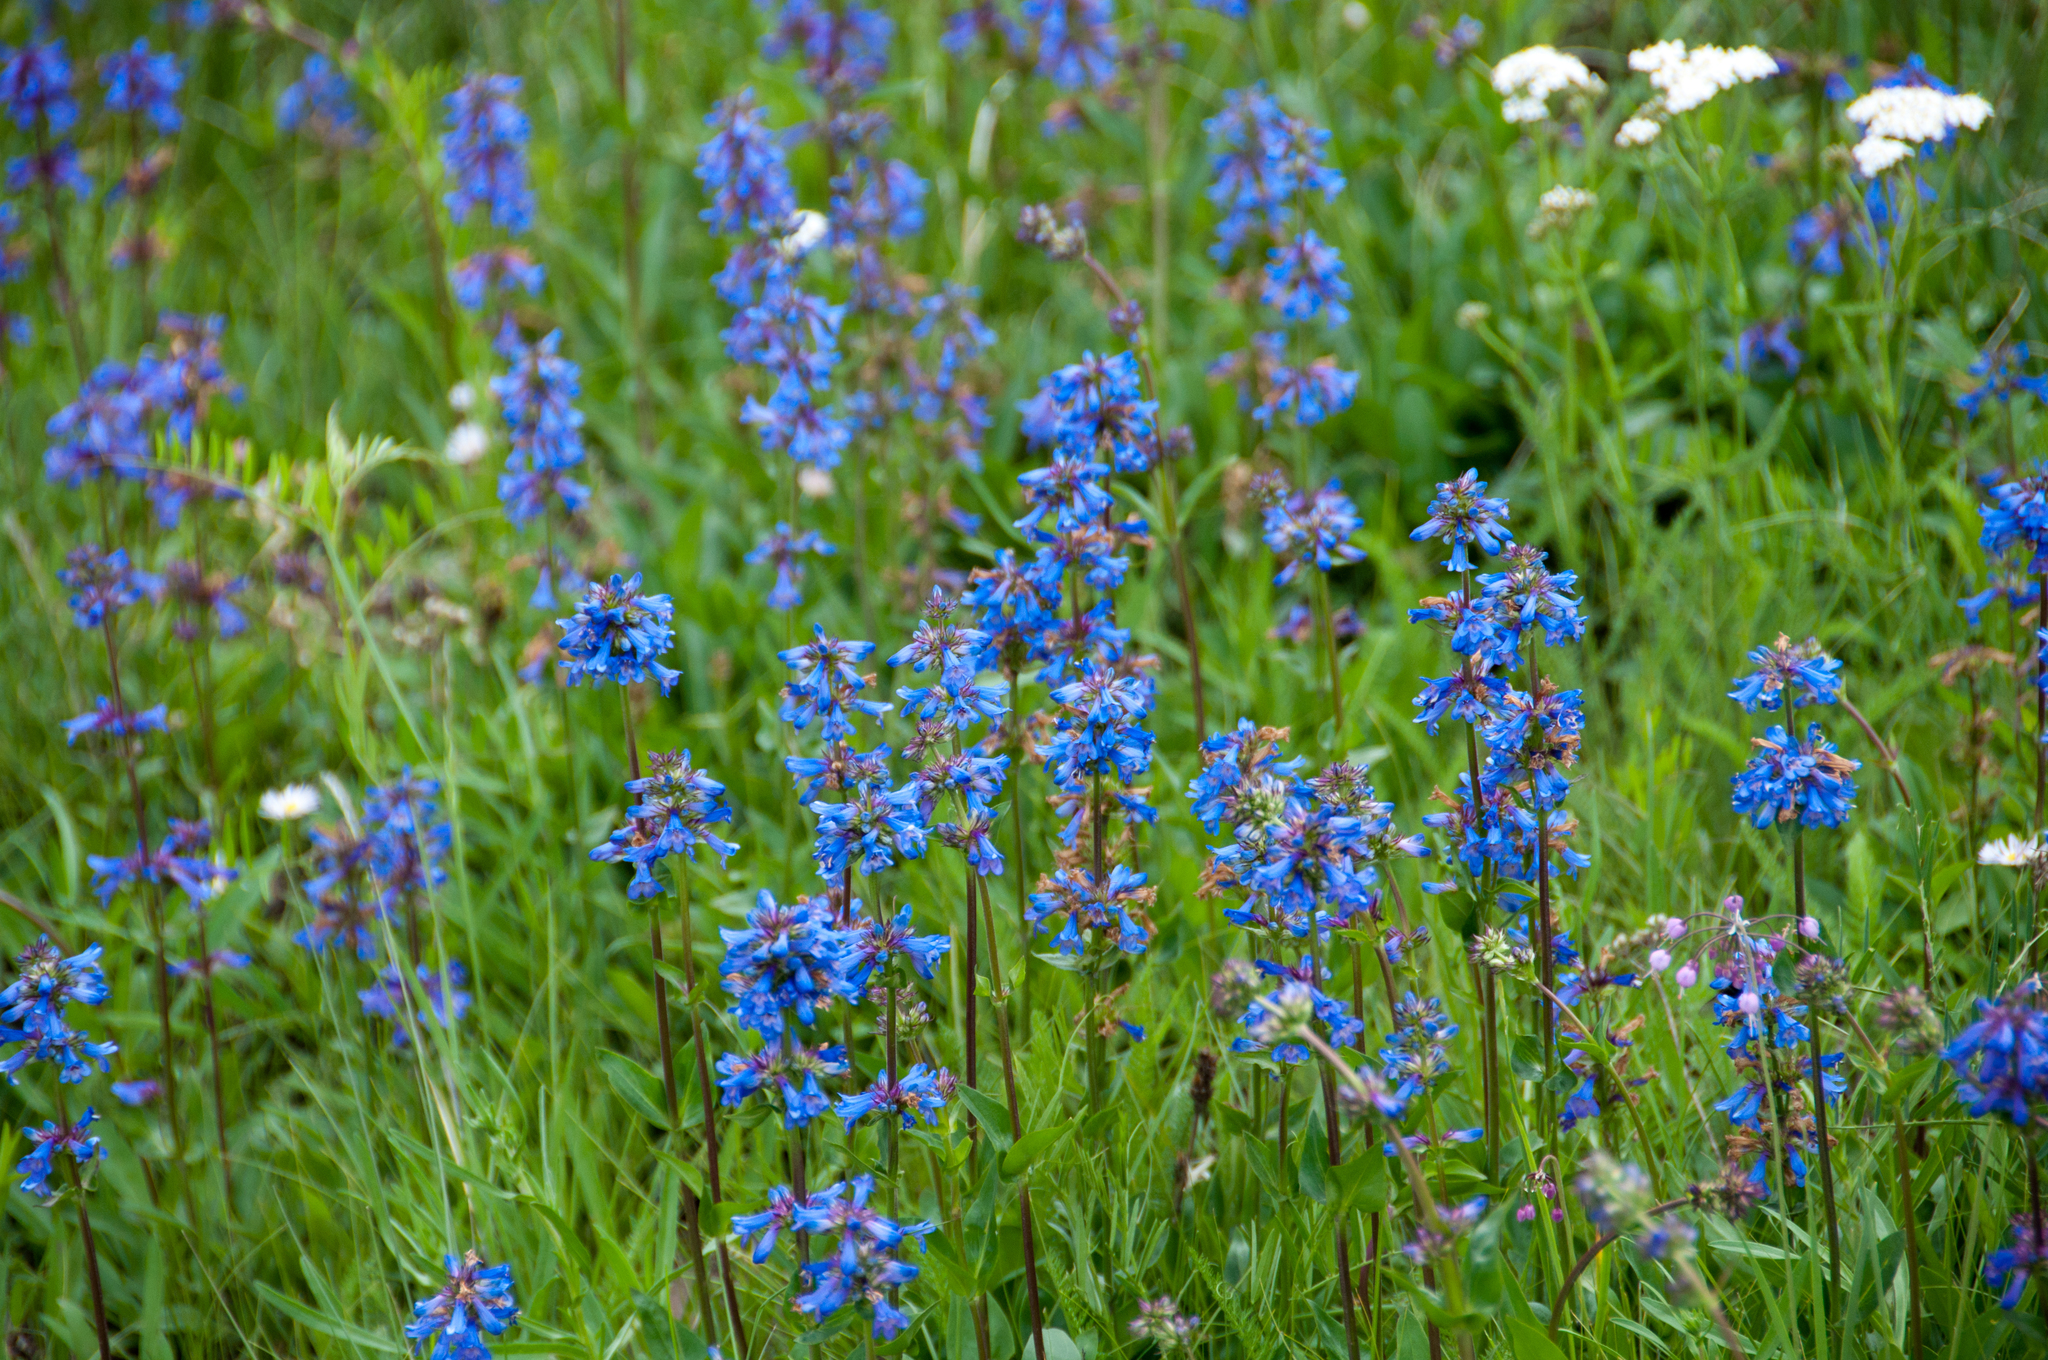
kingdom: Plantae
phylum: Tracheophyta
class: Magnoliopsida
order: Lamiales
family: Plantaginaceae
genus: Penstemon
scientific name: Penstemon rydbergii
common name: Rydberg's beardtongue
